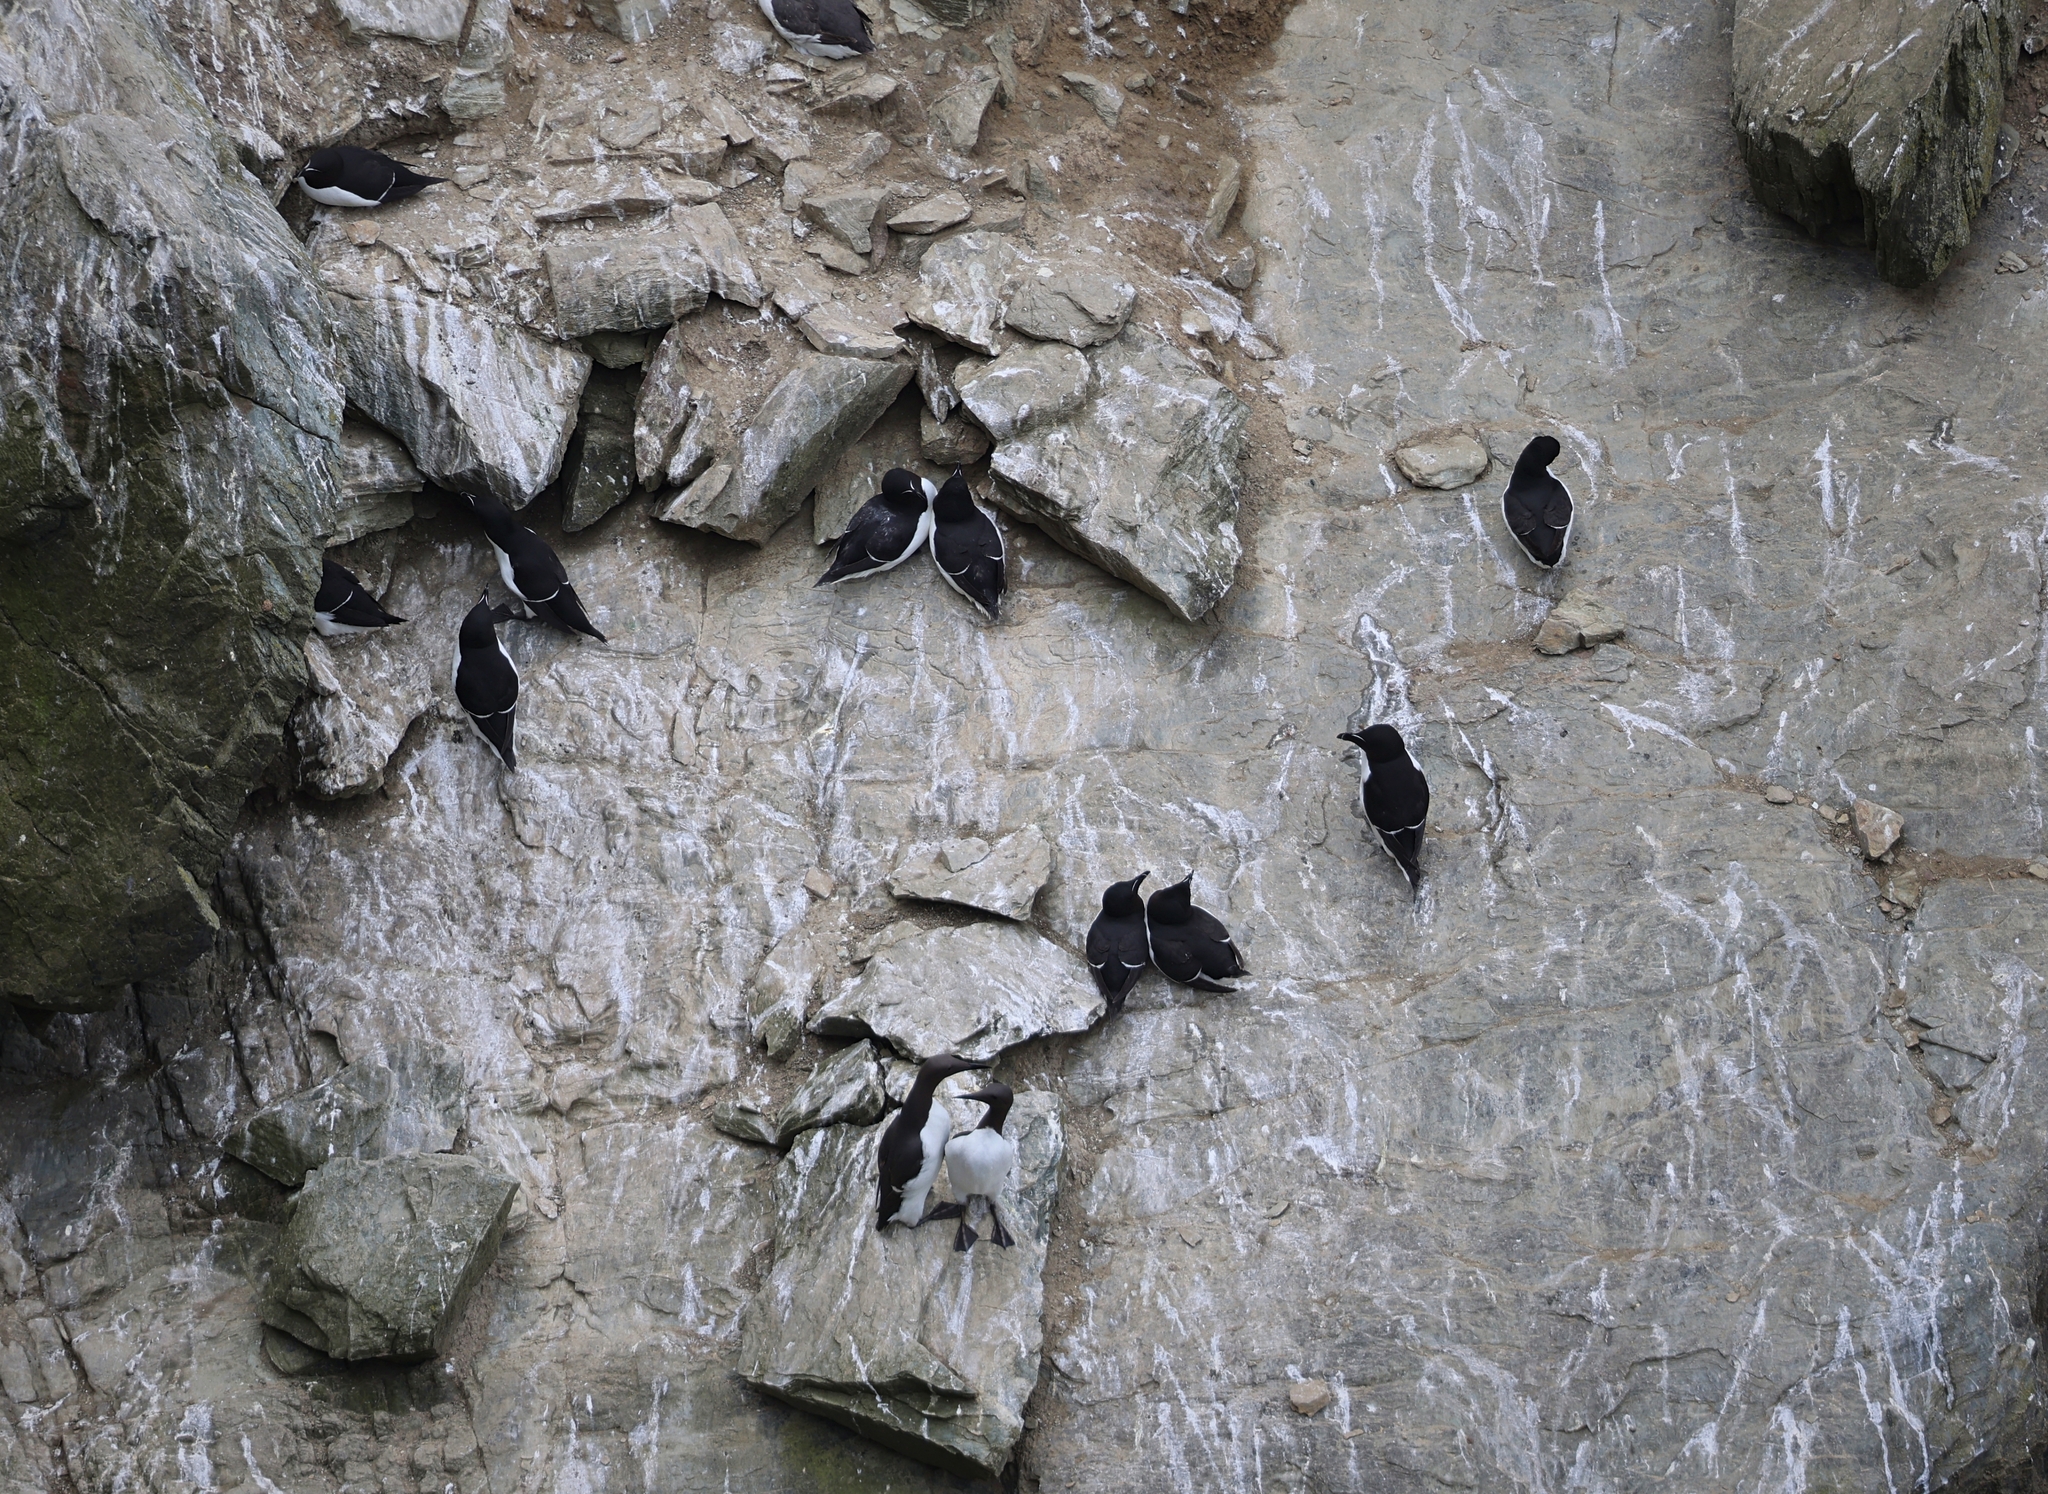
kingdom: Animalia
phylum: Chordata
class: Aves
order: Charadriiformes
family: Alcidae
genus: Alca
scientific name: Alca torda
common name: Razorbill
